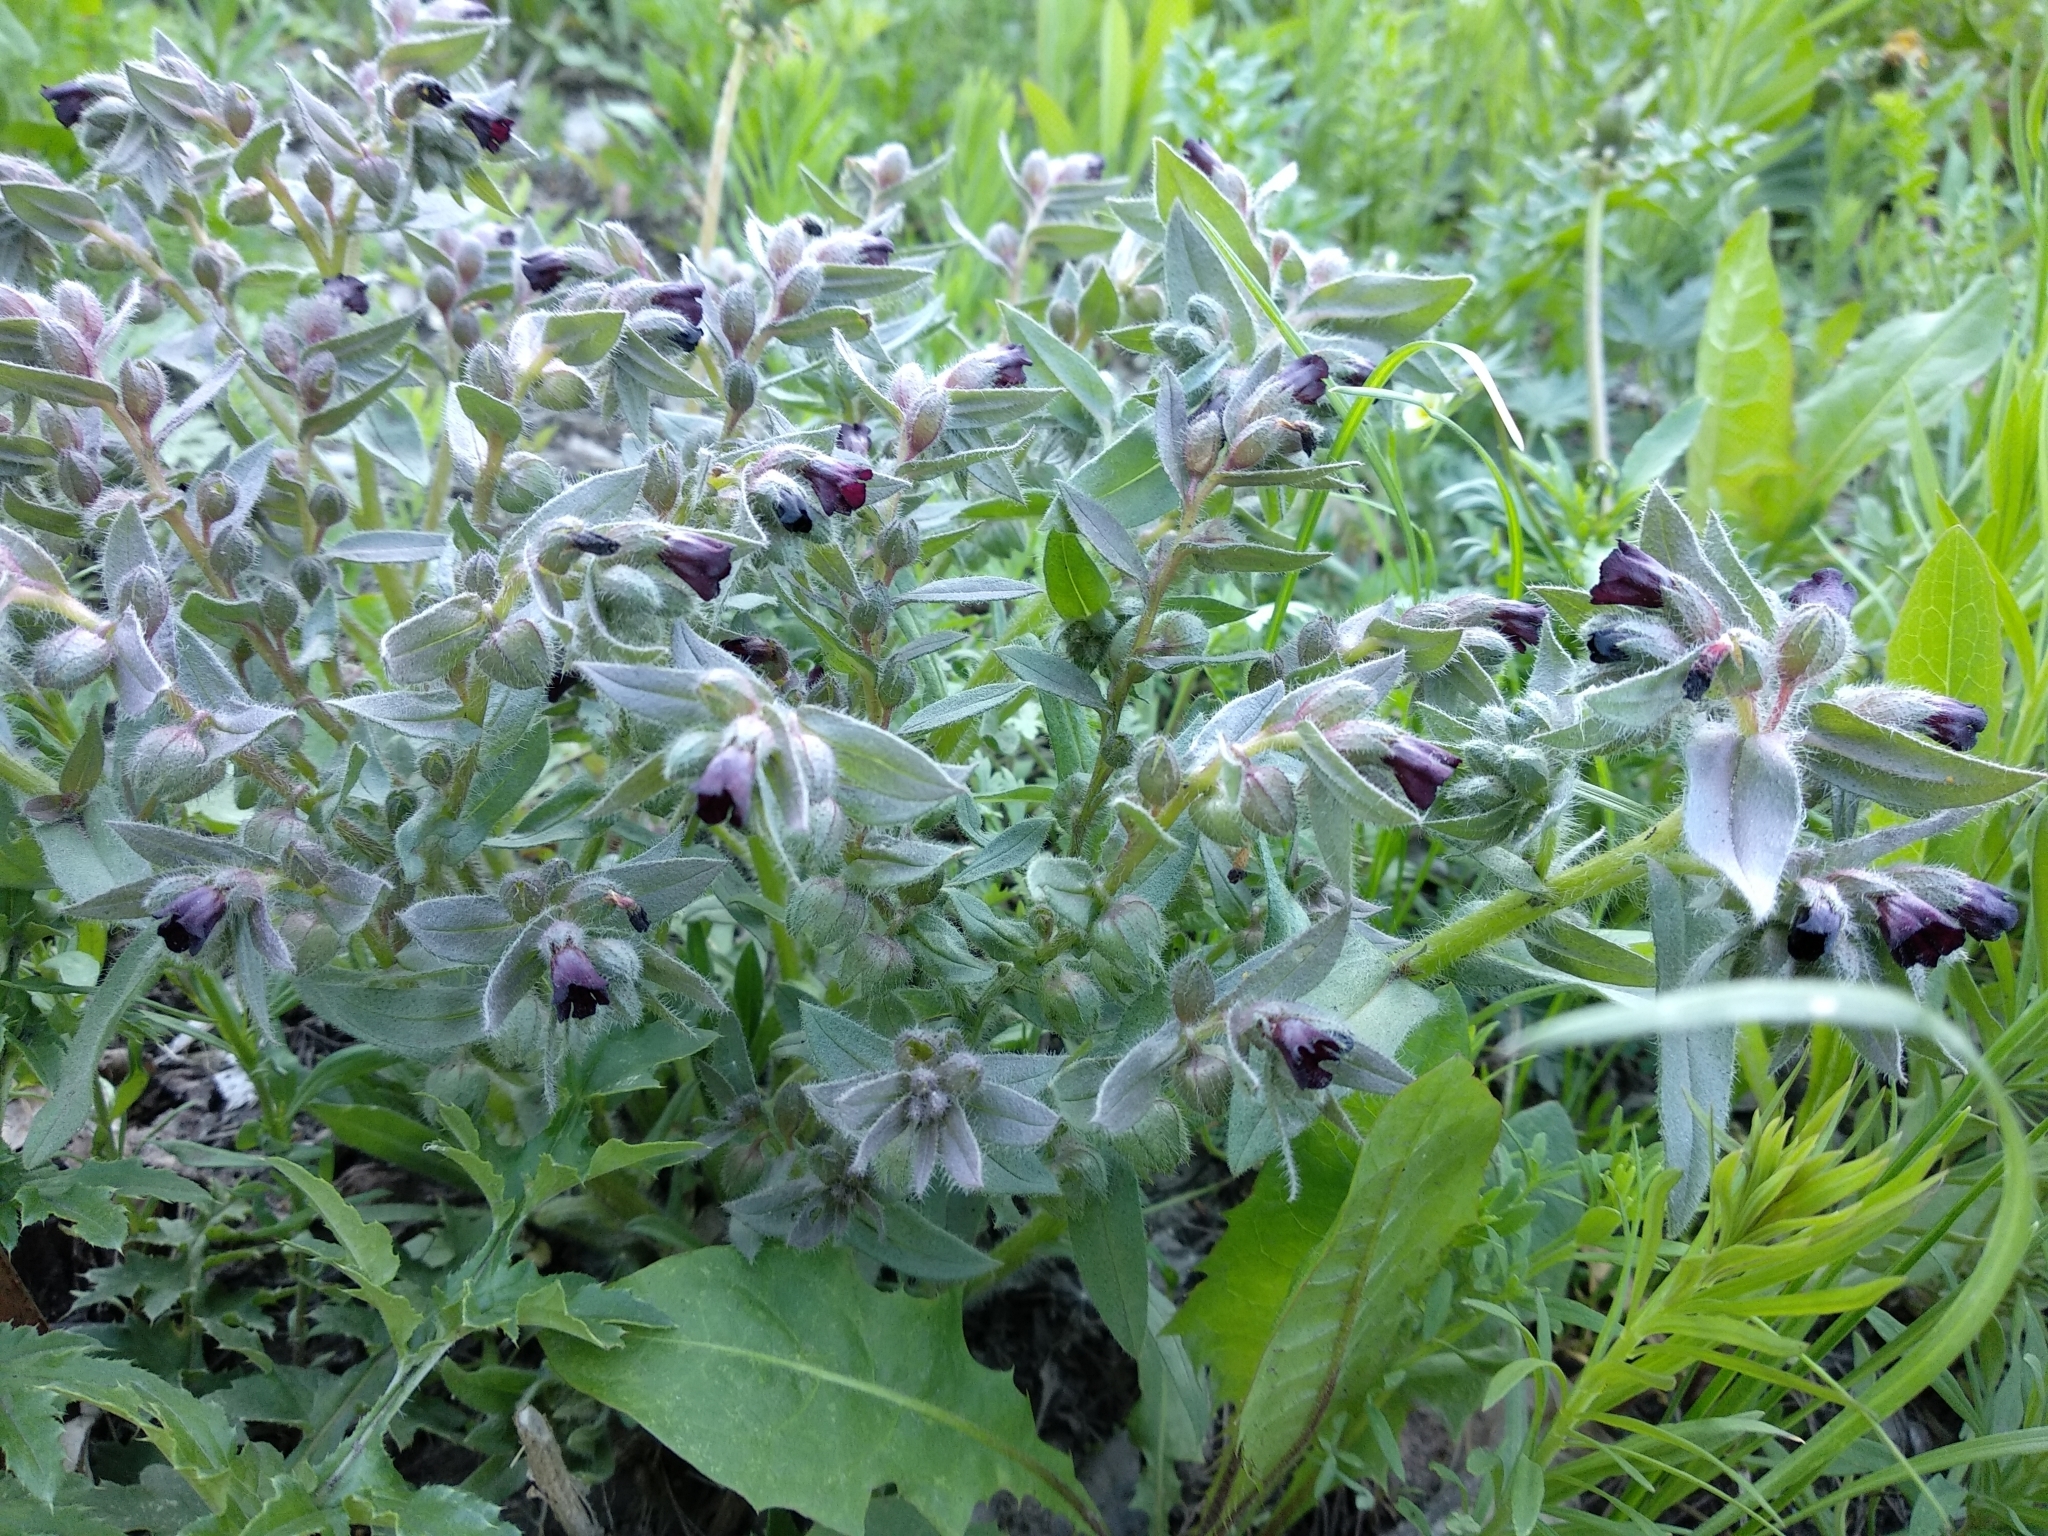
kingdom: Plantae
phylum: Tracheophyta
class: Magnoliopsida
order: Boraginales
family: Boraginaceae
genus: Nonea
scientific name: Nonea pulla
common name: Brown nonea
